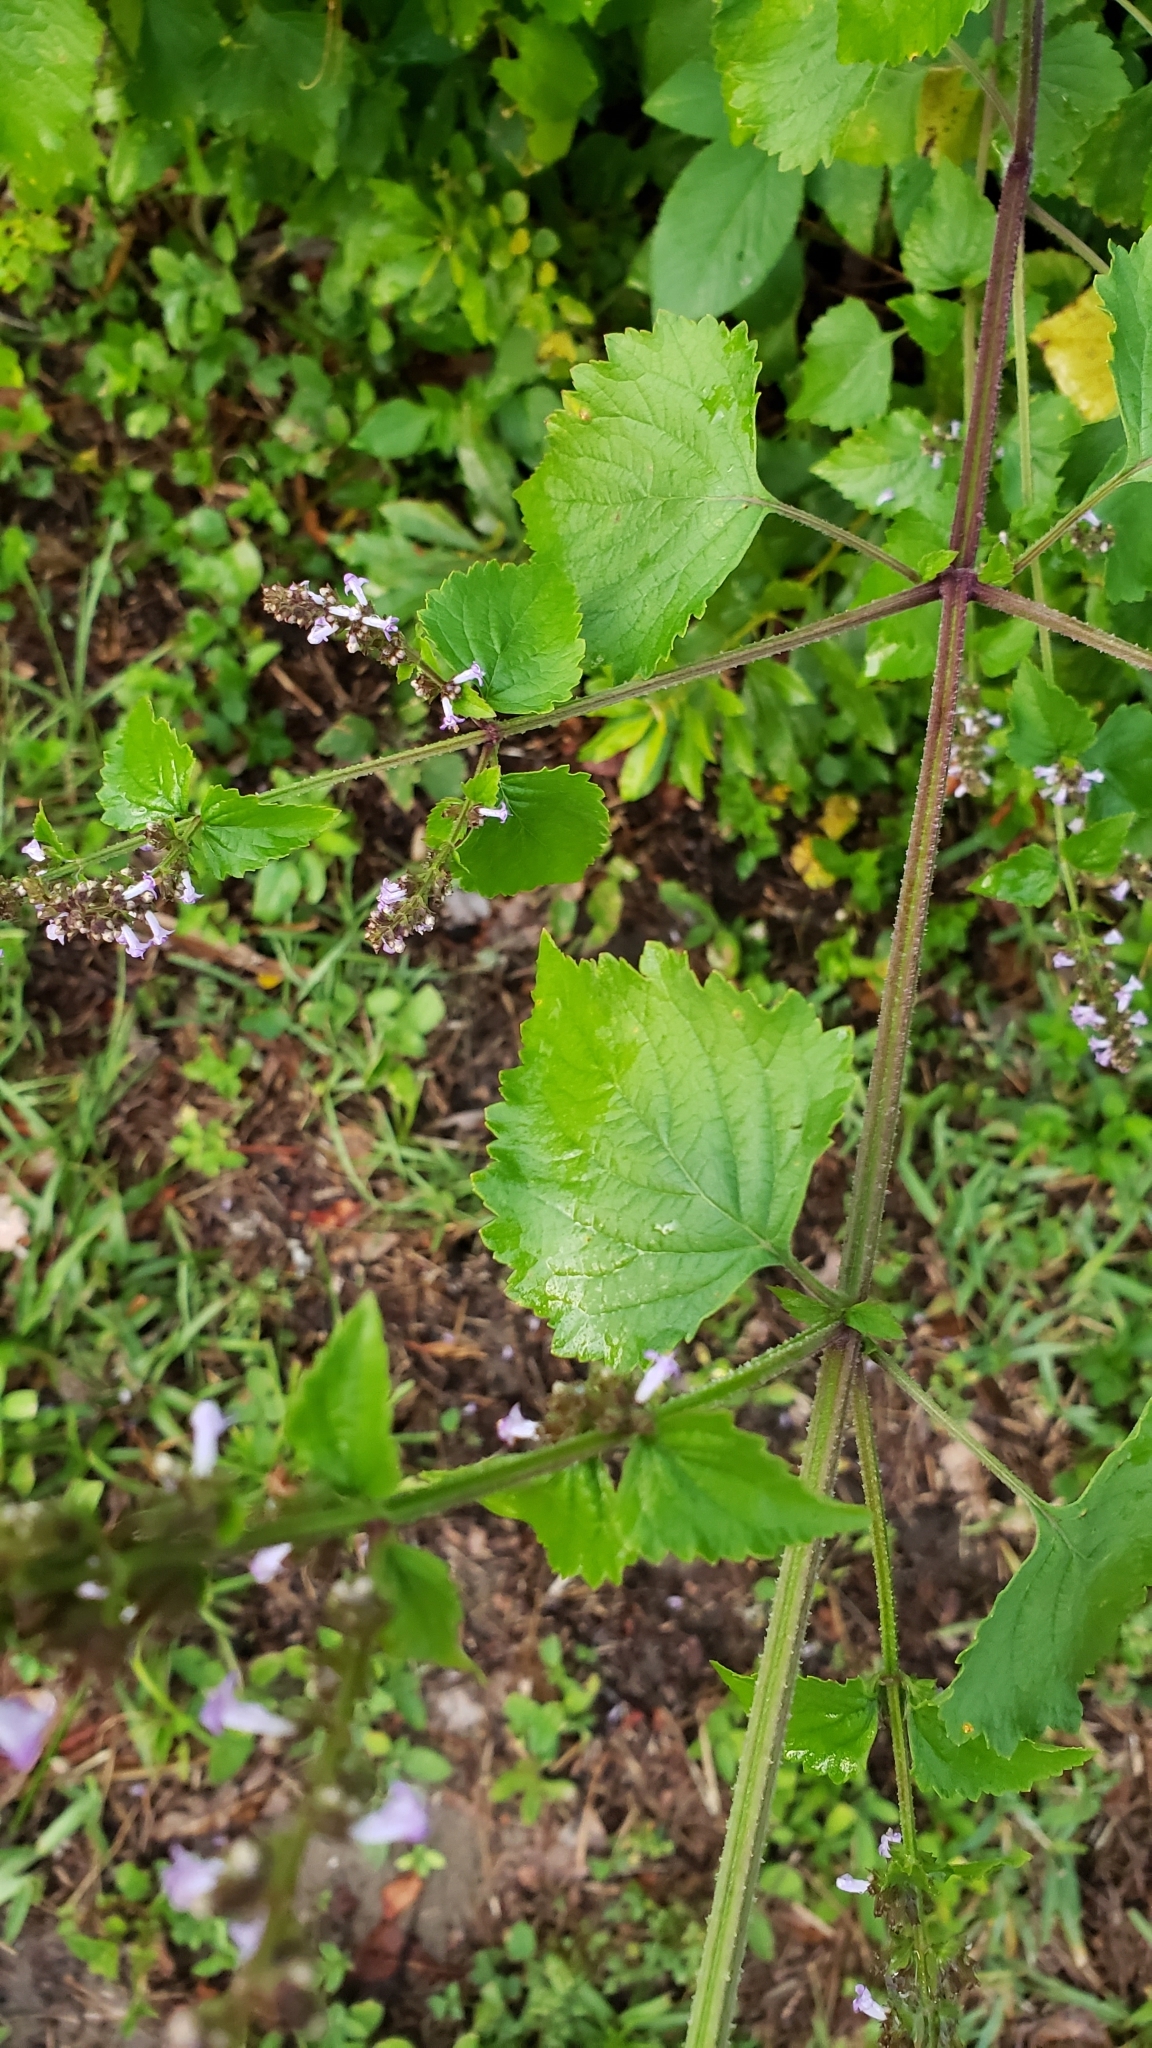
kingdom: Plantae
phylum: Tracheophyta
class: Magnoliopsida
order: Lamiales
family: Lamiaceae
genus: Cantinoa
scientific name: Cantinoa mutabilis
